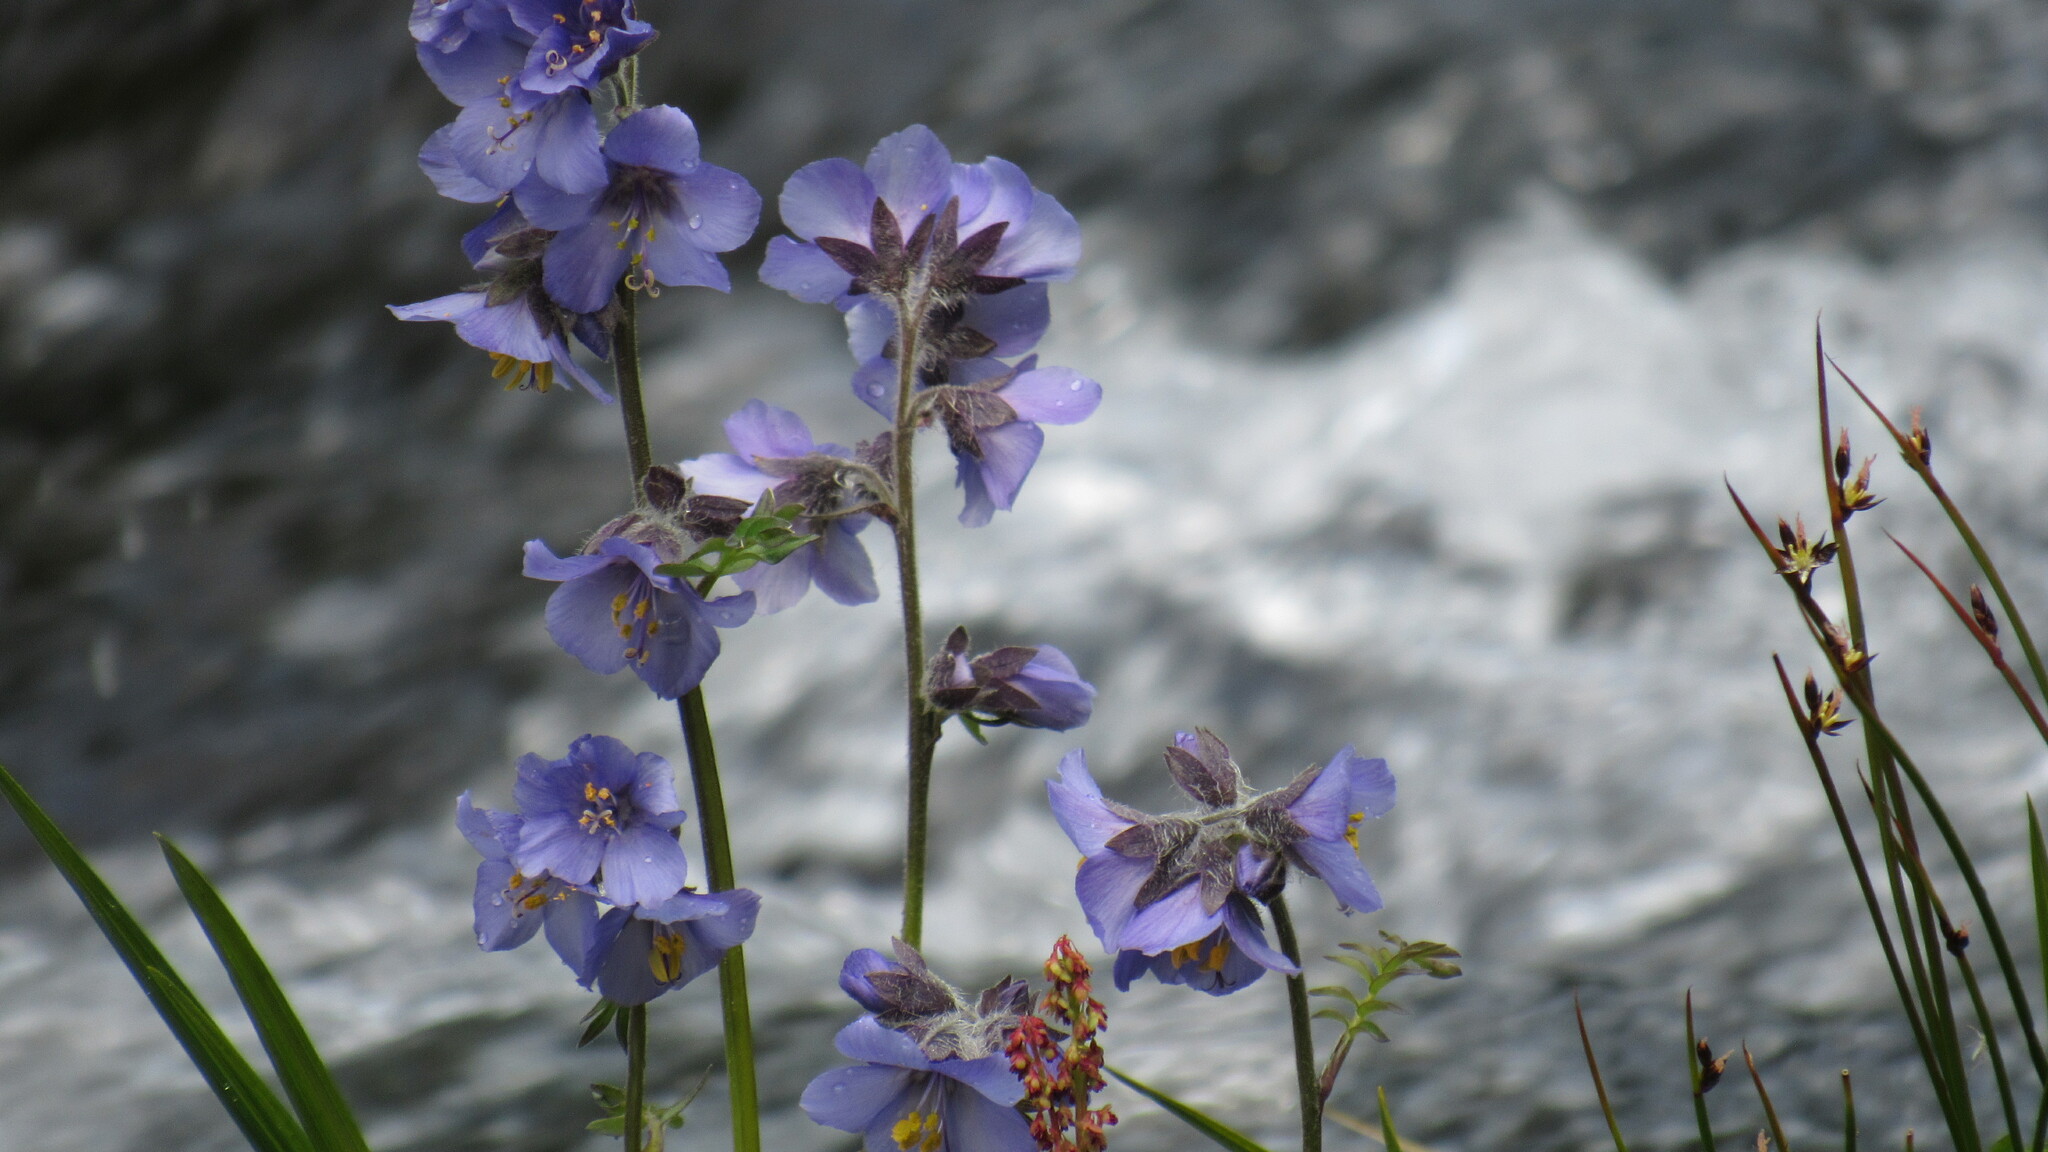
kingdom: Plantae
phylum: Tracheophyta
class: Magnoliopsida
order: Ericales
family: Polemoniaceae
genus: Polemonium
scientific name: Polemonium acutiflorum
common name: Tall jacob's-ladder
